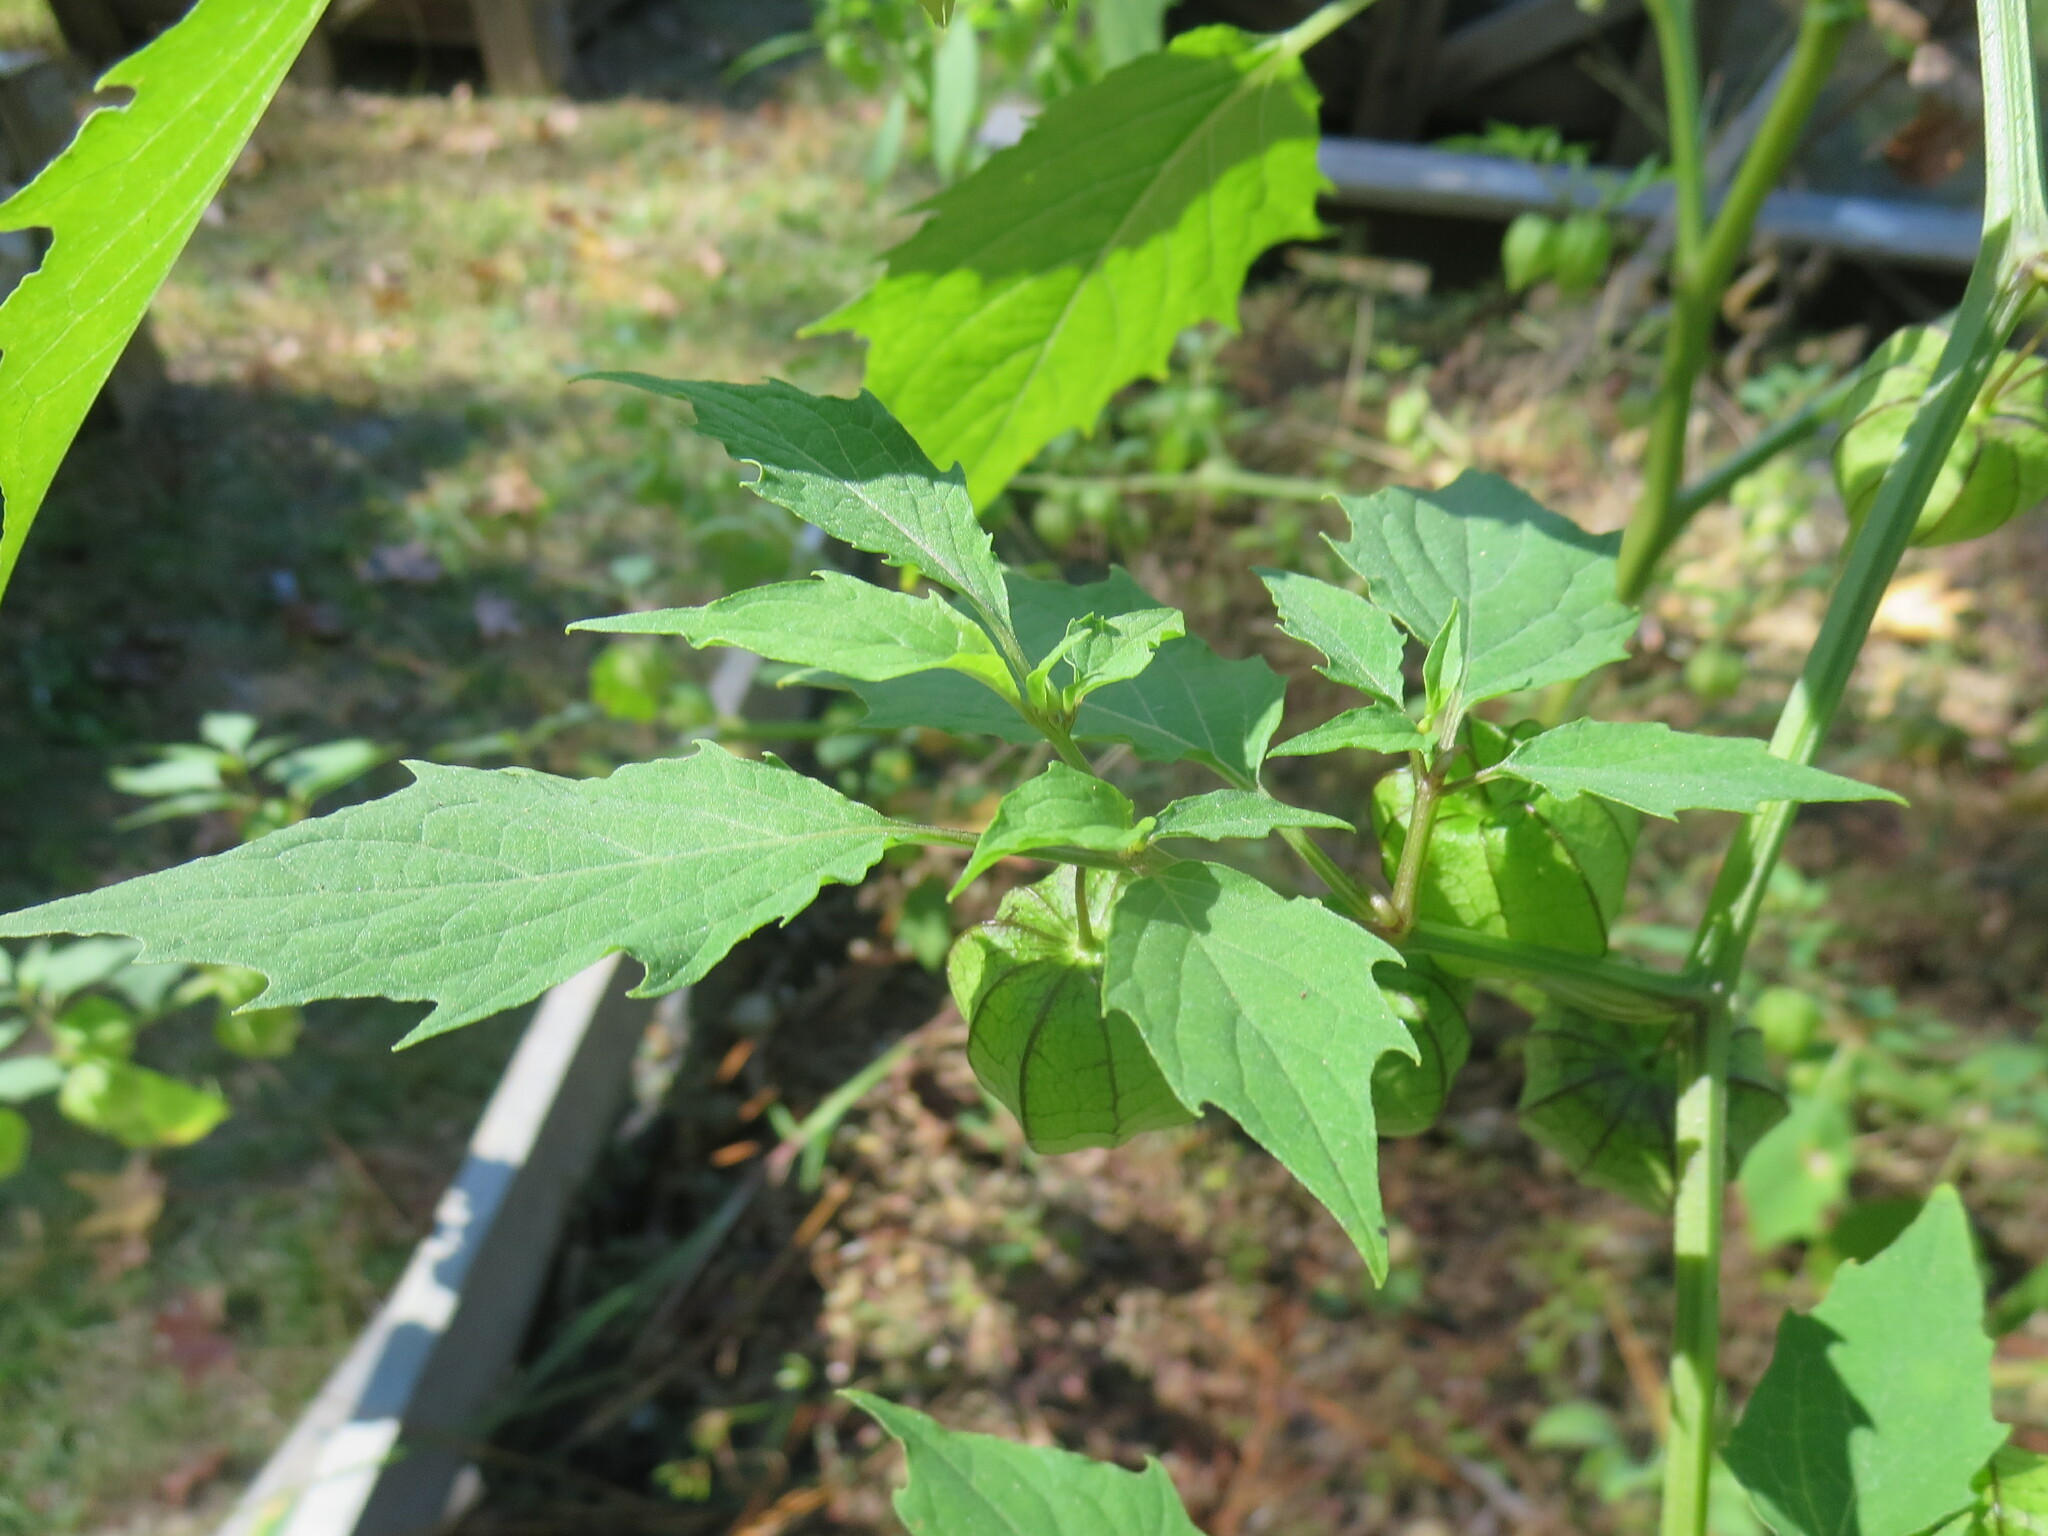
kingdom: Plantae
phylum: Tracheophyta
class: Magnoliopsida
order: Solanales
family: Solanaceae
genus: Physalis
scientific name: Physalis angulata
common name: Angular winter-cherry
